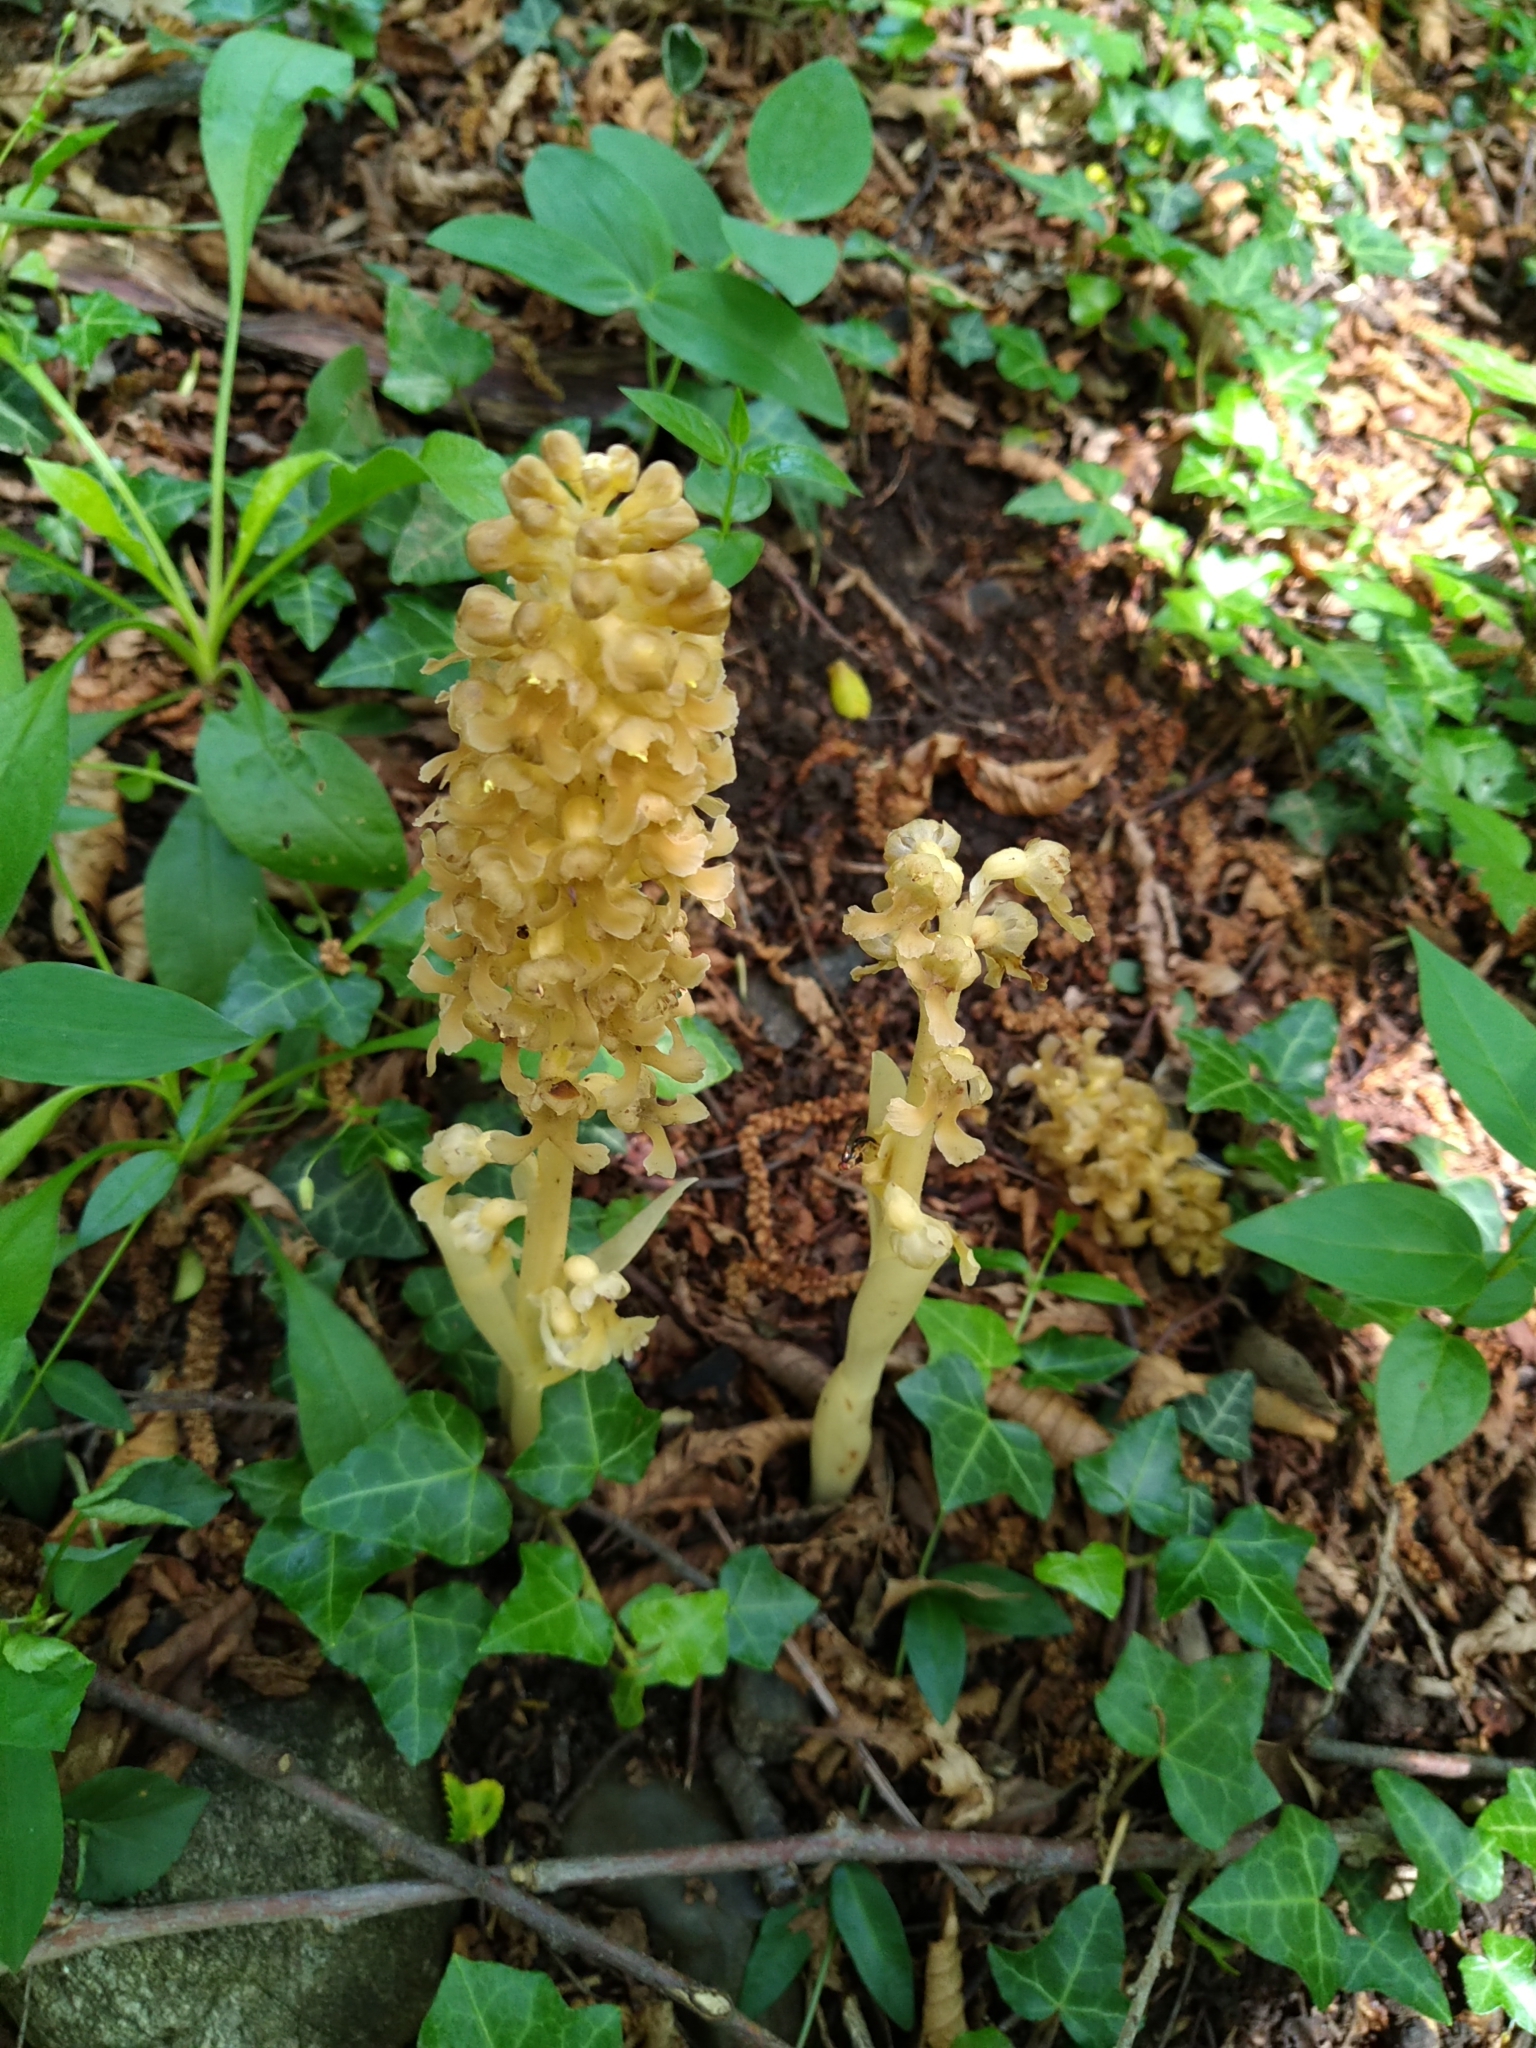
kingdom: Plantae
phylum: Tracheophyta
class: Liliopsida
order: Asparagales
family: Orchidaceae
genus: Neottia
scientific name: Neottia nidus-avis
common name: Bird's-nest orchid
